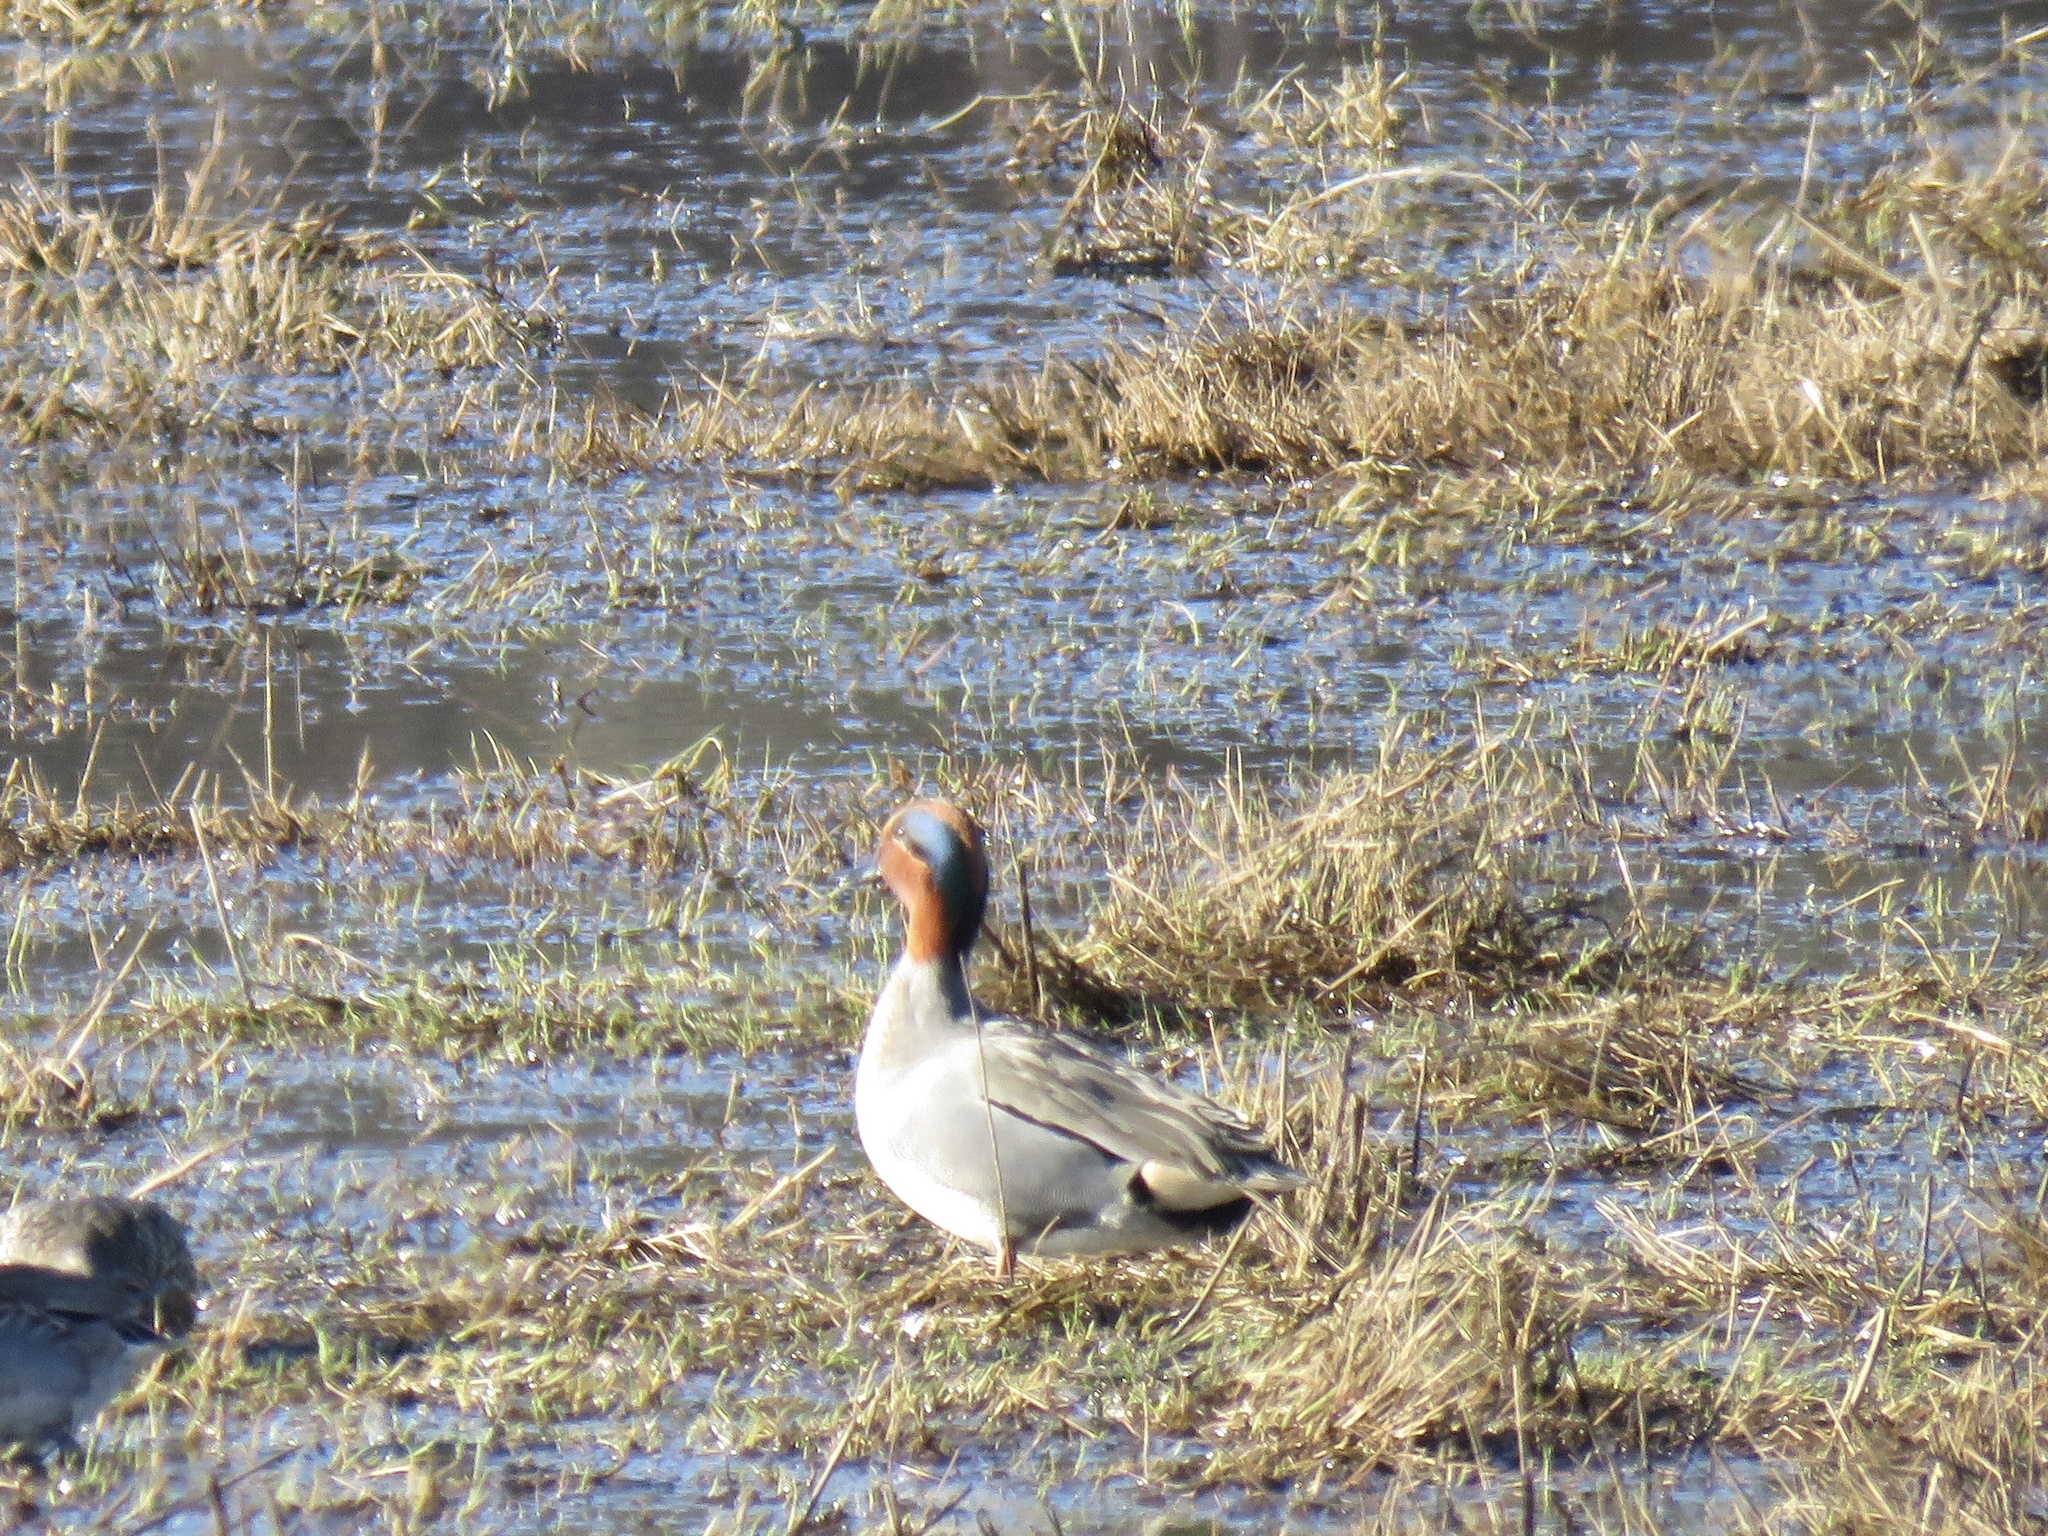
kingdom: Animalia
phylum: Chordata
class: Aves
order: Anseriformes
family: Anatidae
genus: Anas
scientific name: Anas crecca
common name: Eurasian teal
